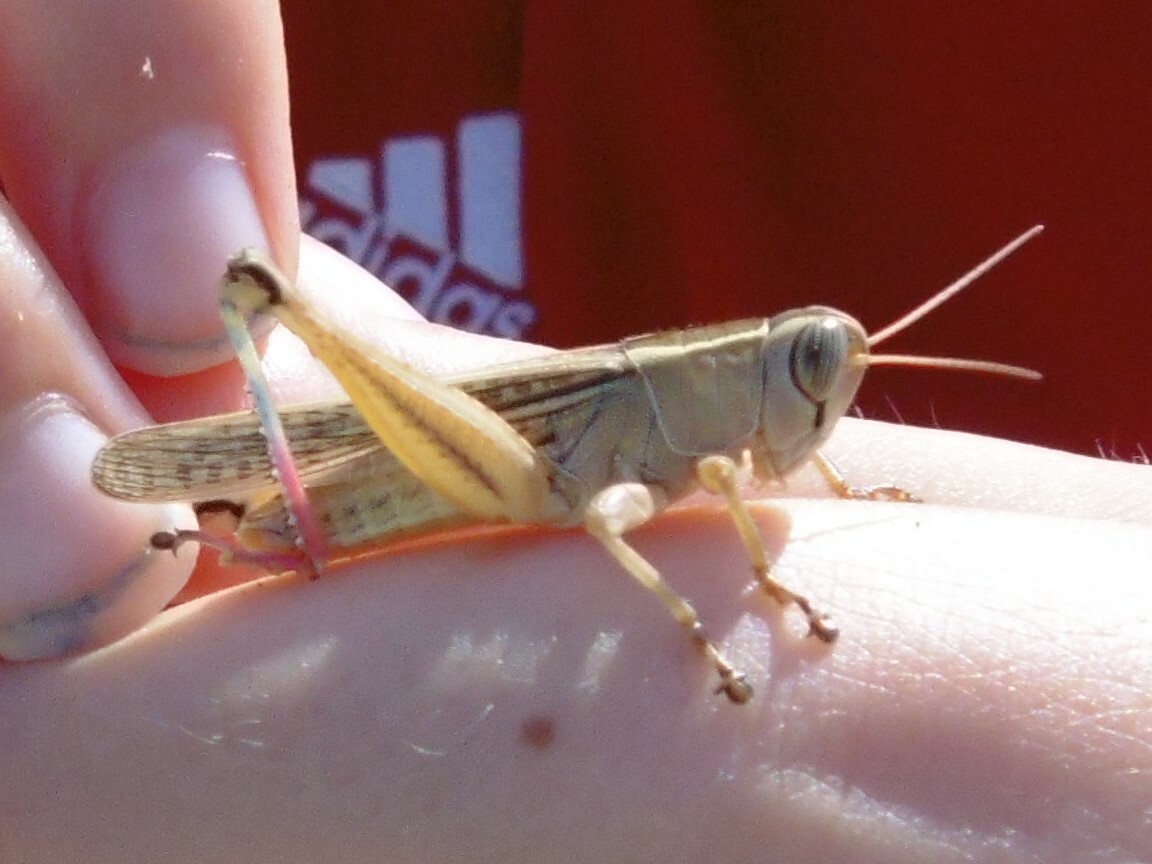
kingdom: Animalia
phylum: Arthropoda
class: Insecta
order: Orthoptera
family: Acrididae
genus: Eyprepocnemis
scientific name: Eyprepocnemis plorans
